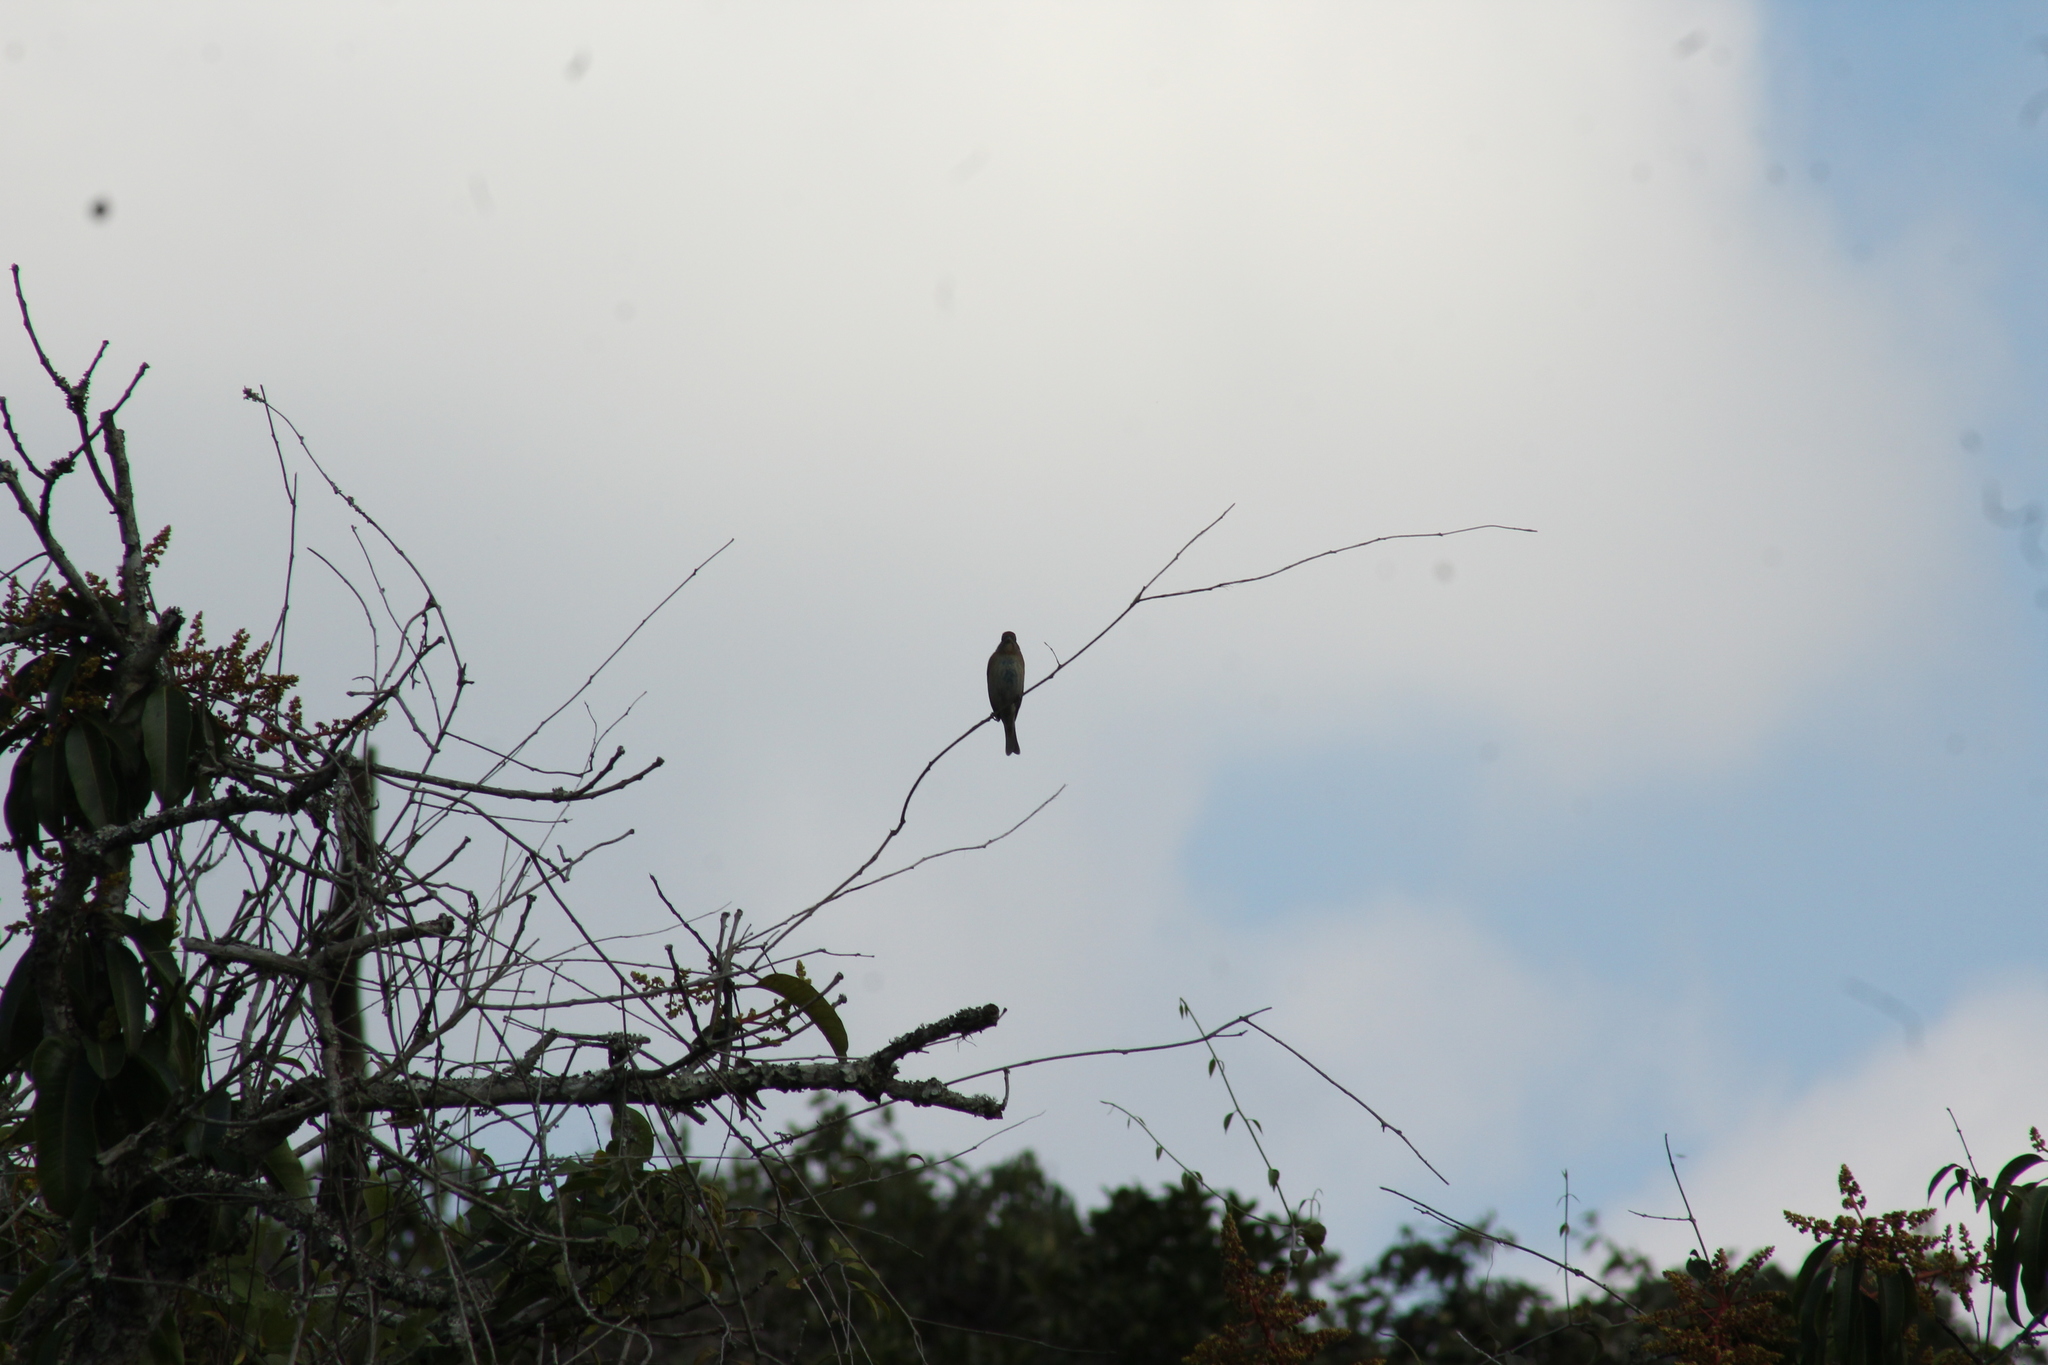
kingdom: Animalia
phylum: Chordata
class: Aves
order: Passeriformes
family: Cardinalidae
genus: Passerina
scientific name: Passerina cyanea
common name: Indigo bunting
